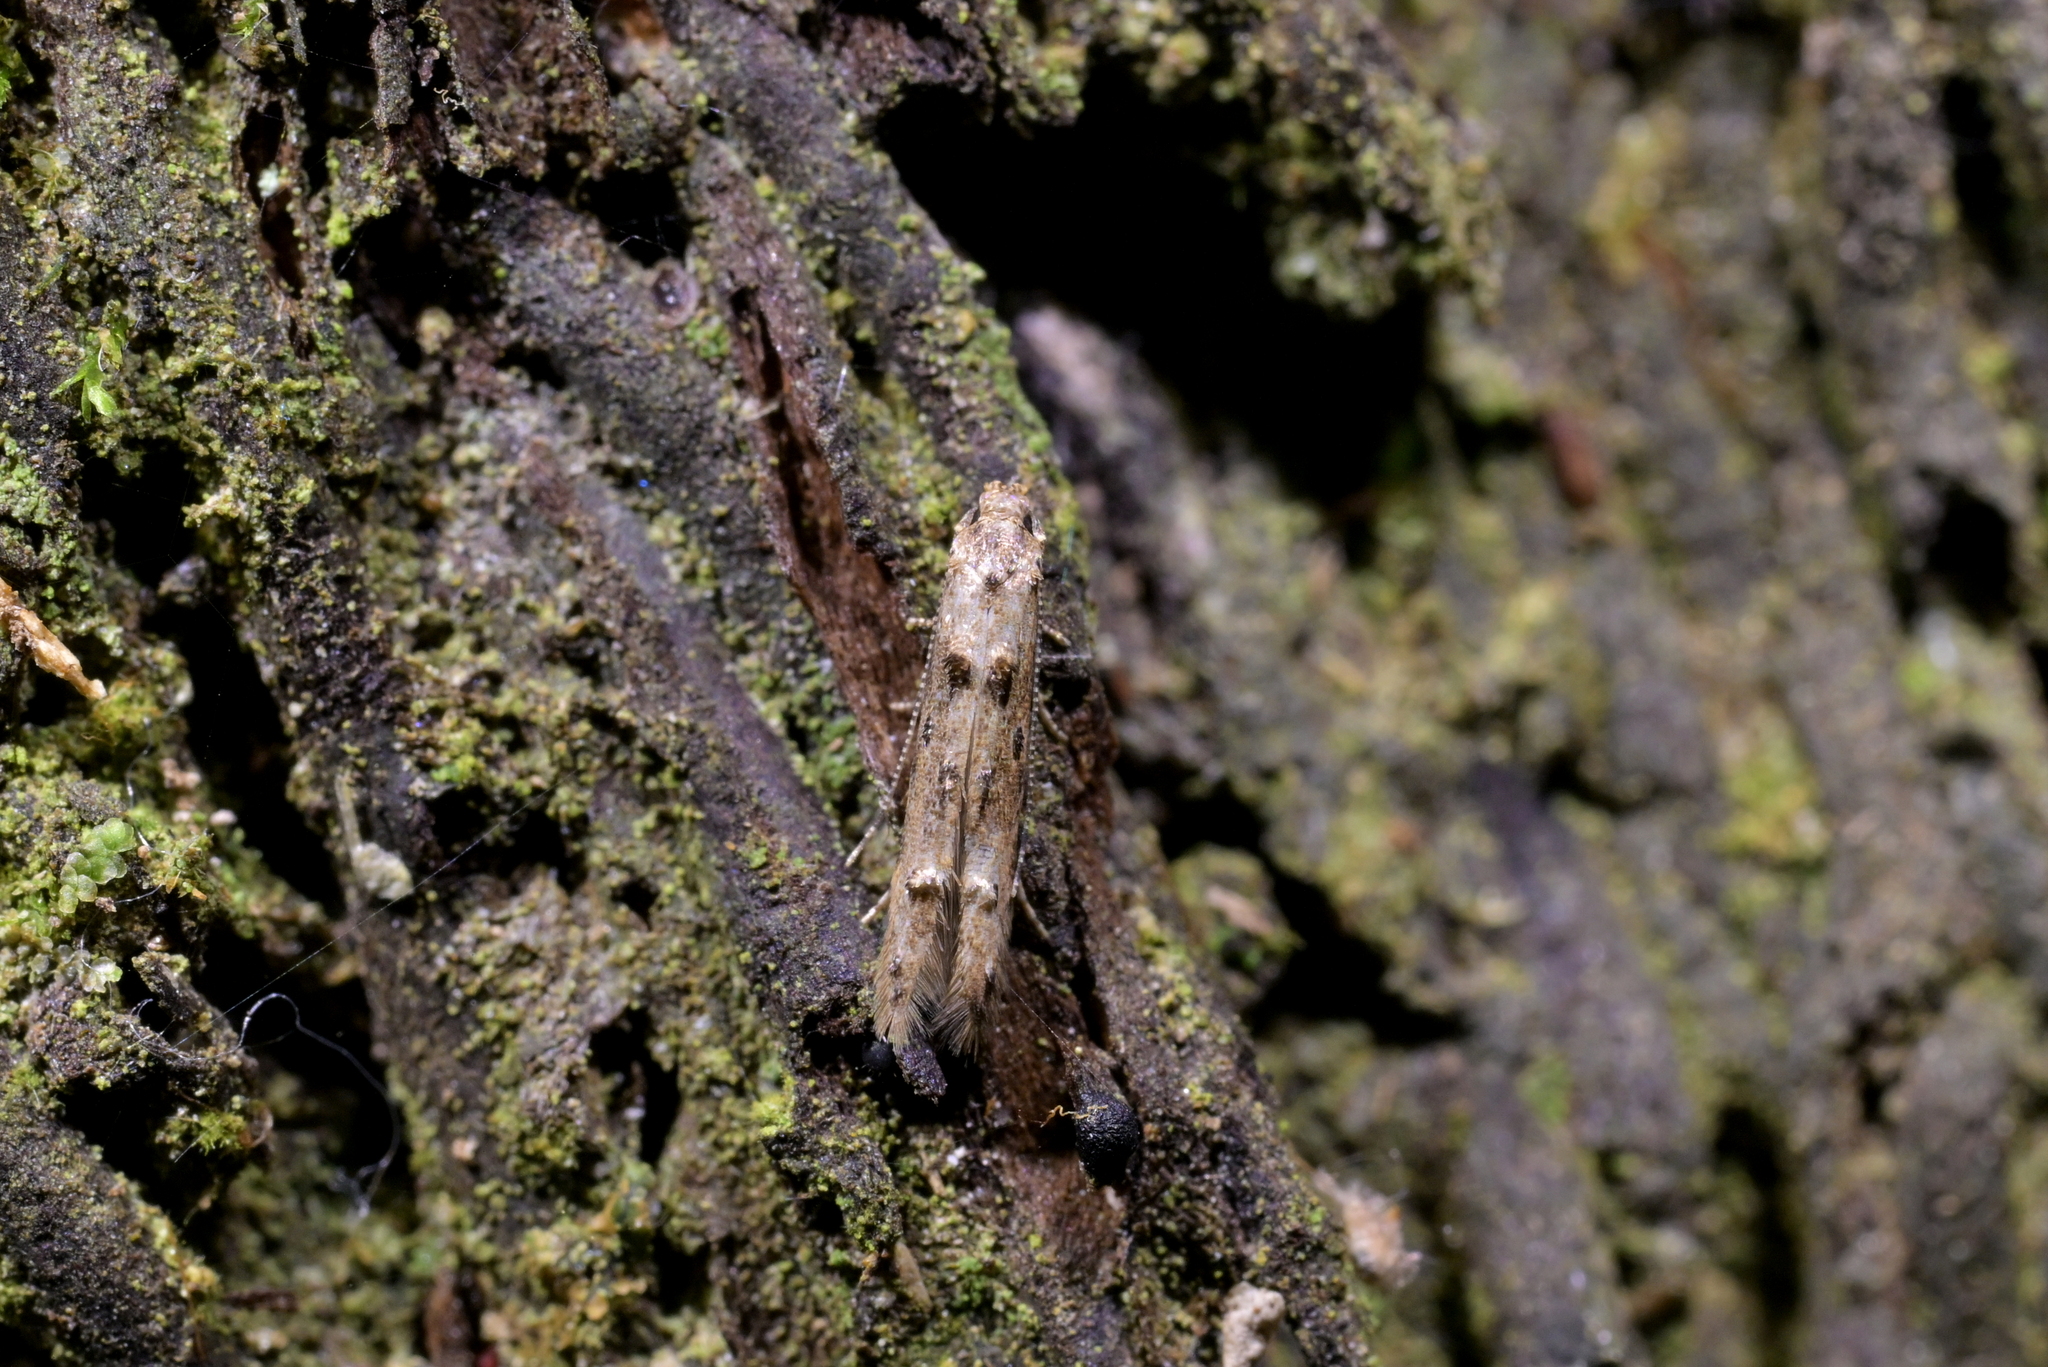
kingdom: Animalia
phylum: Arthropoda
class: Insecta
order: Lepidoptera
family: Elachistidae
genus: Microcolona
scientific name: Microcolona limodes
